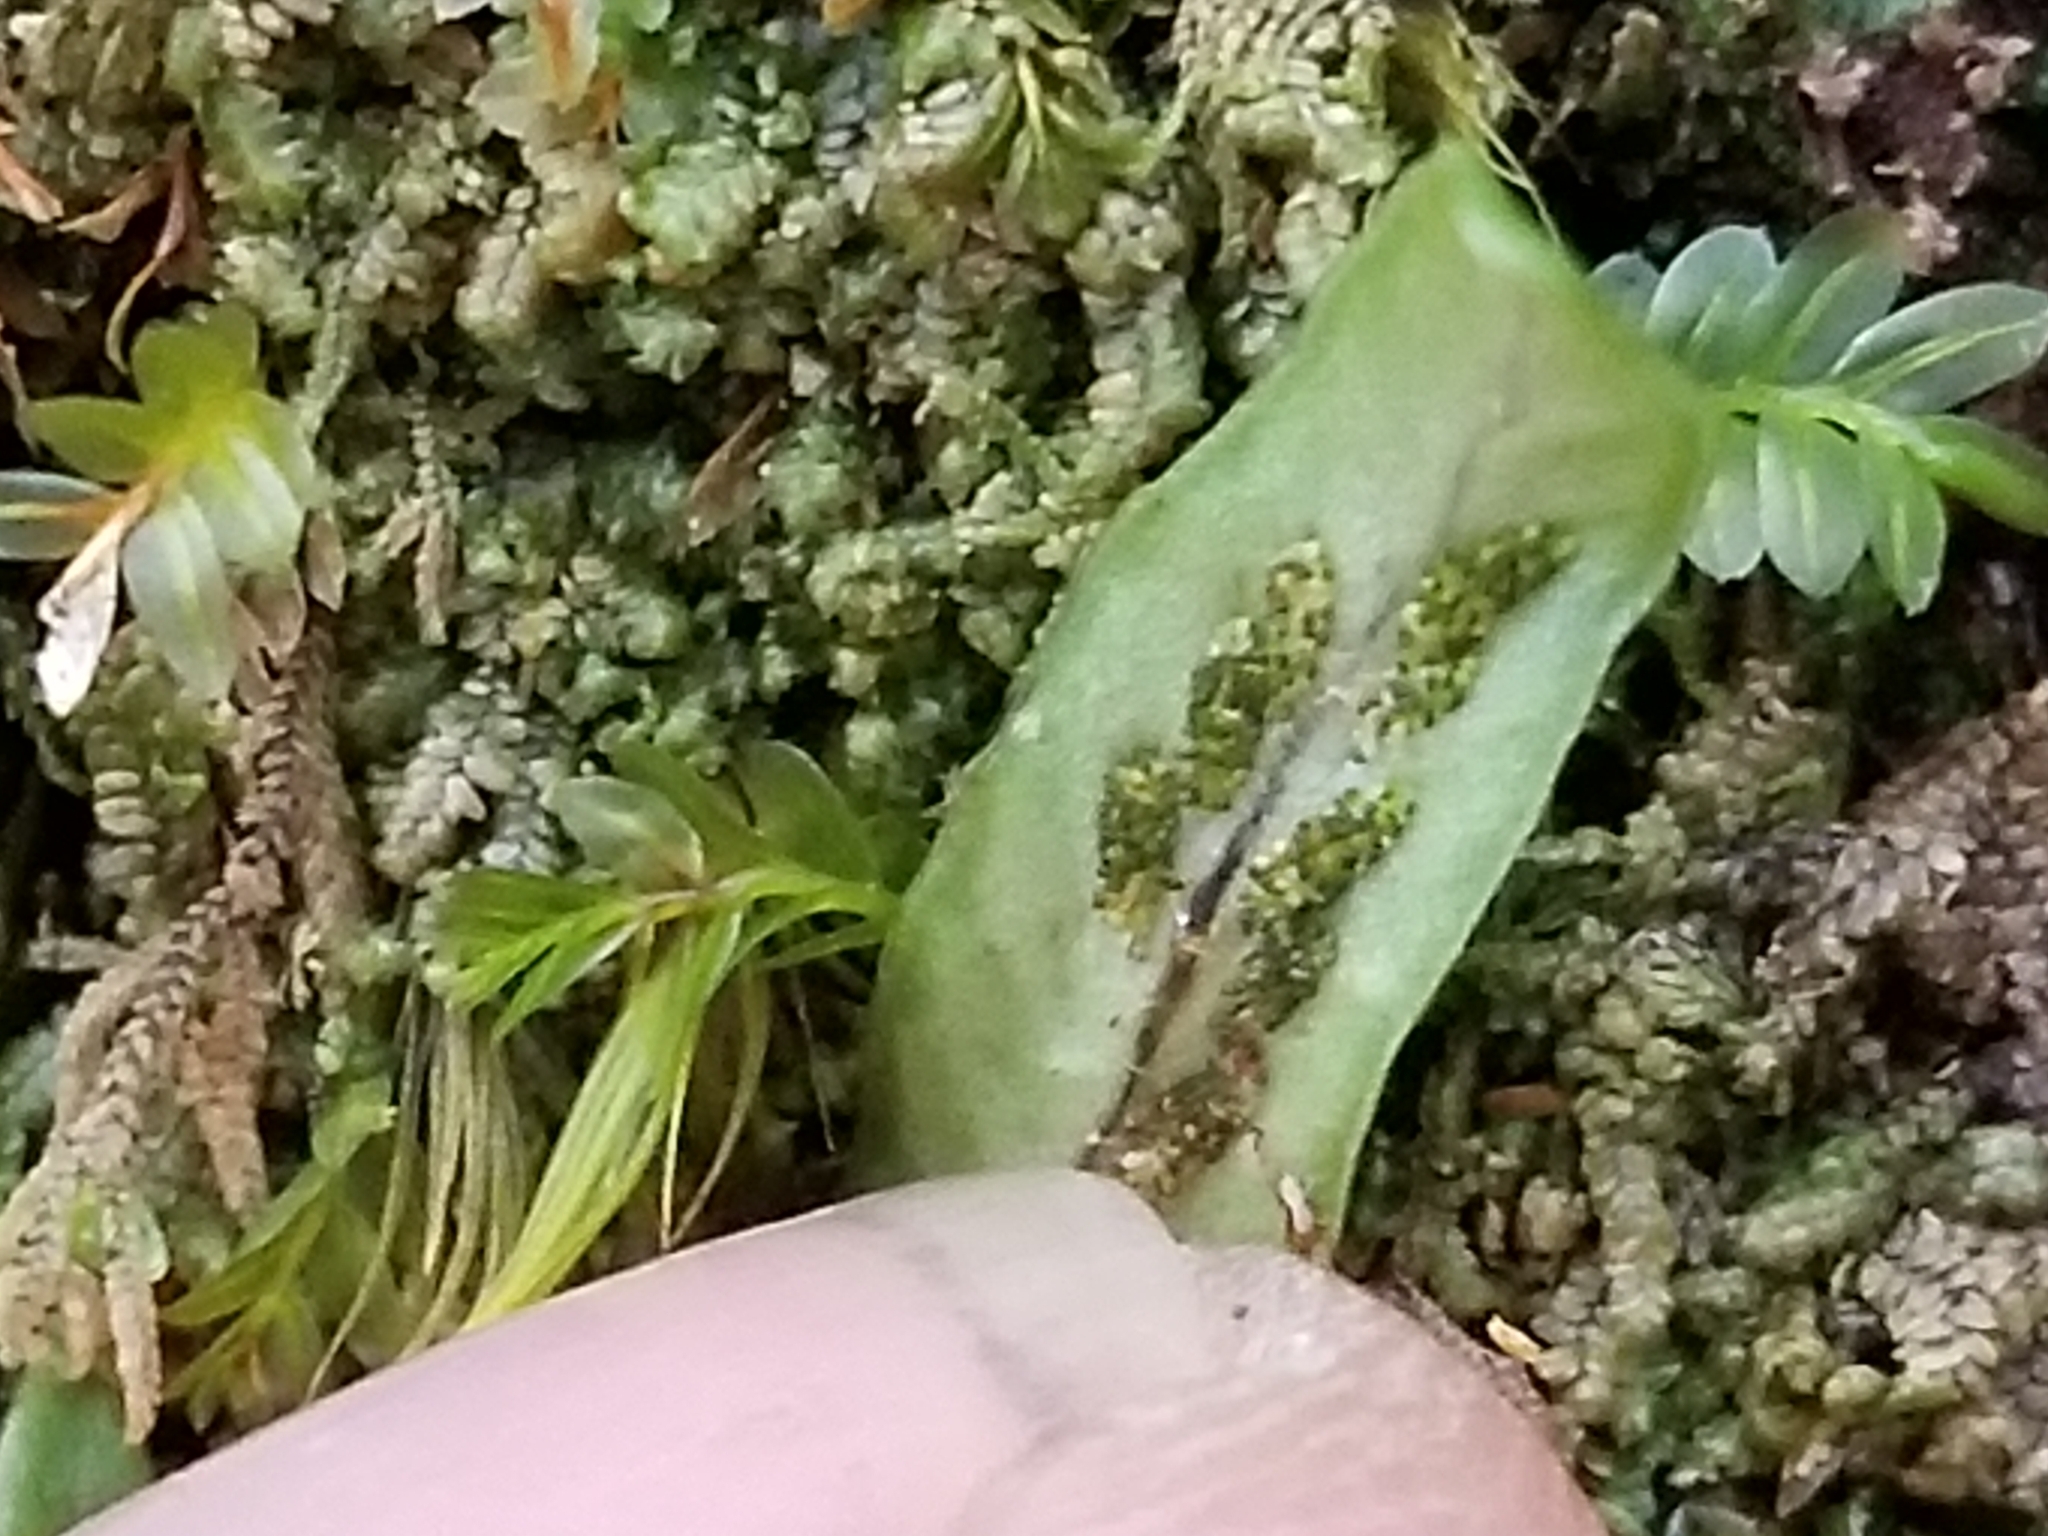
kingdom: Plantae
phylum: Tracheophyta
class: Polypodiopsida
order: Polypodiales
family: Polypodiaceae
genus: Notogrammitis
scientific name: Notogrammitis billardierei
